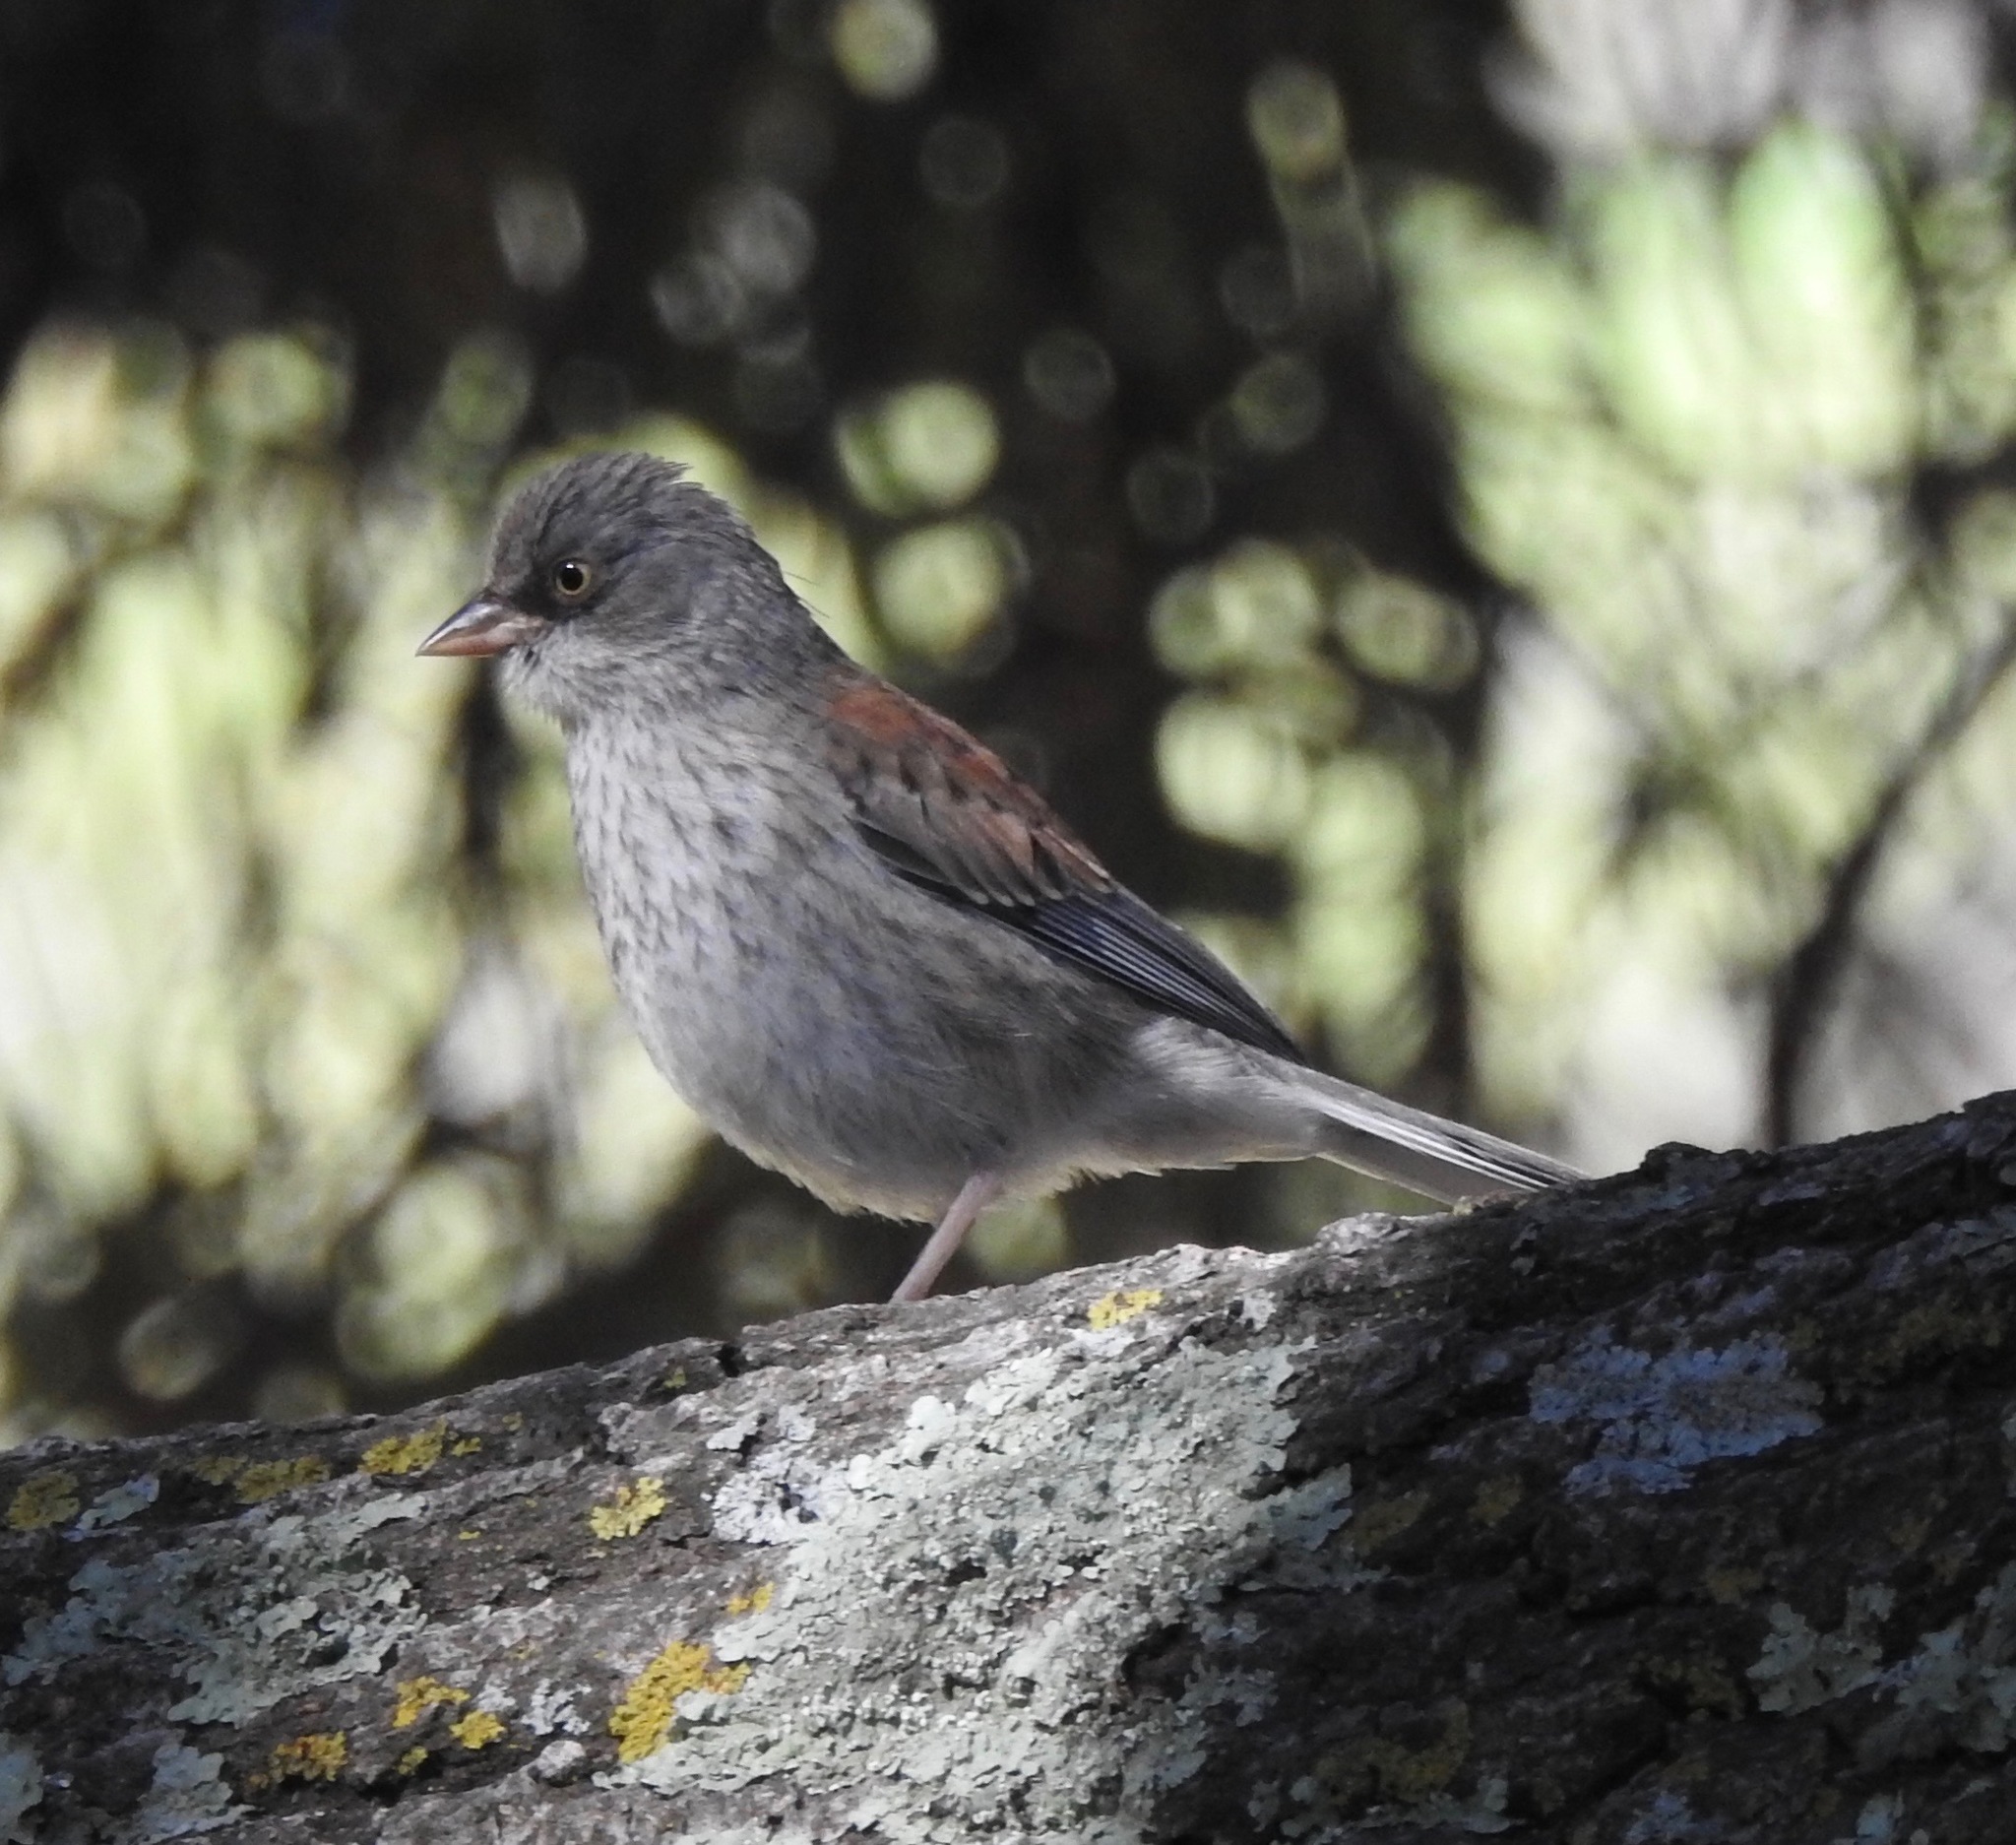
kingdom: Animalia
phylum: Chordata
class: Aves
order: Passeriformes
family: Passerellidae
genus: Junco
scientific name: Junco phaeonotus
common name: Yellow-eyed junco
